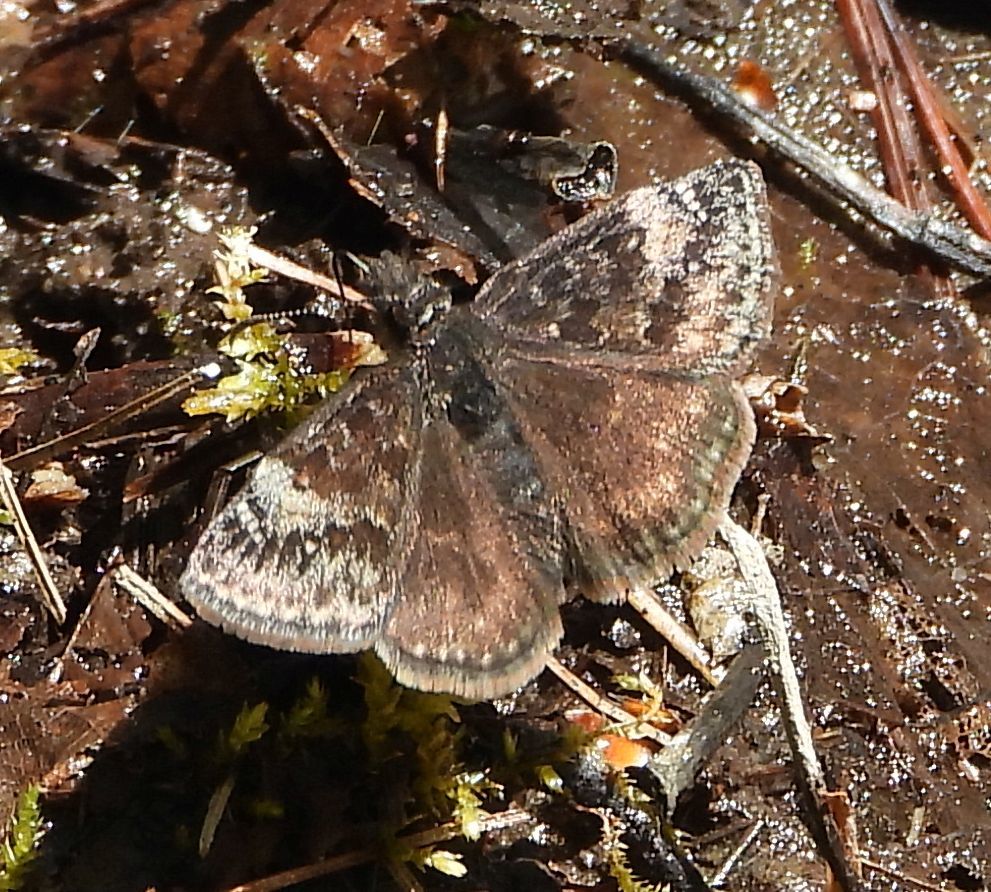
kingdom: Animalia
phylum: Arthropoda
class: Insecta
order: Lepidoptera
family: Hesperiidae
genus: Erynnis
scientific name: Erynnis lucilius
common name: Columbine duskywing
